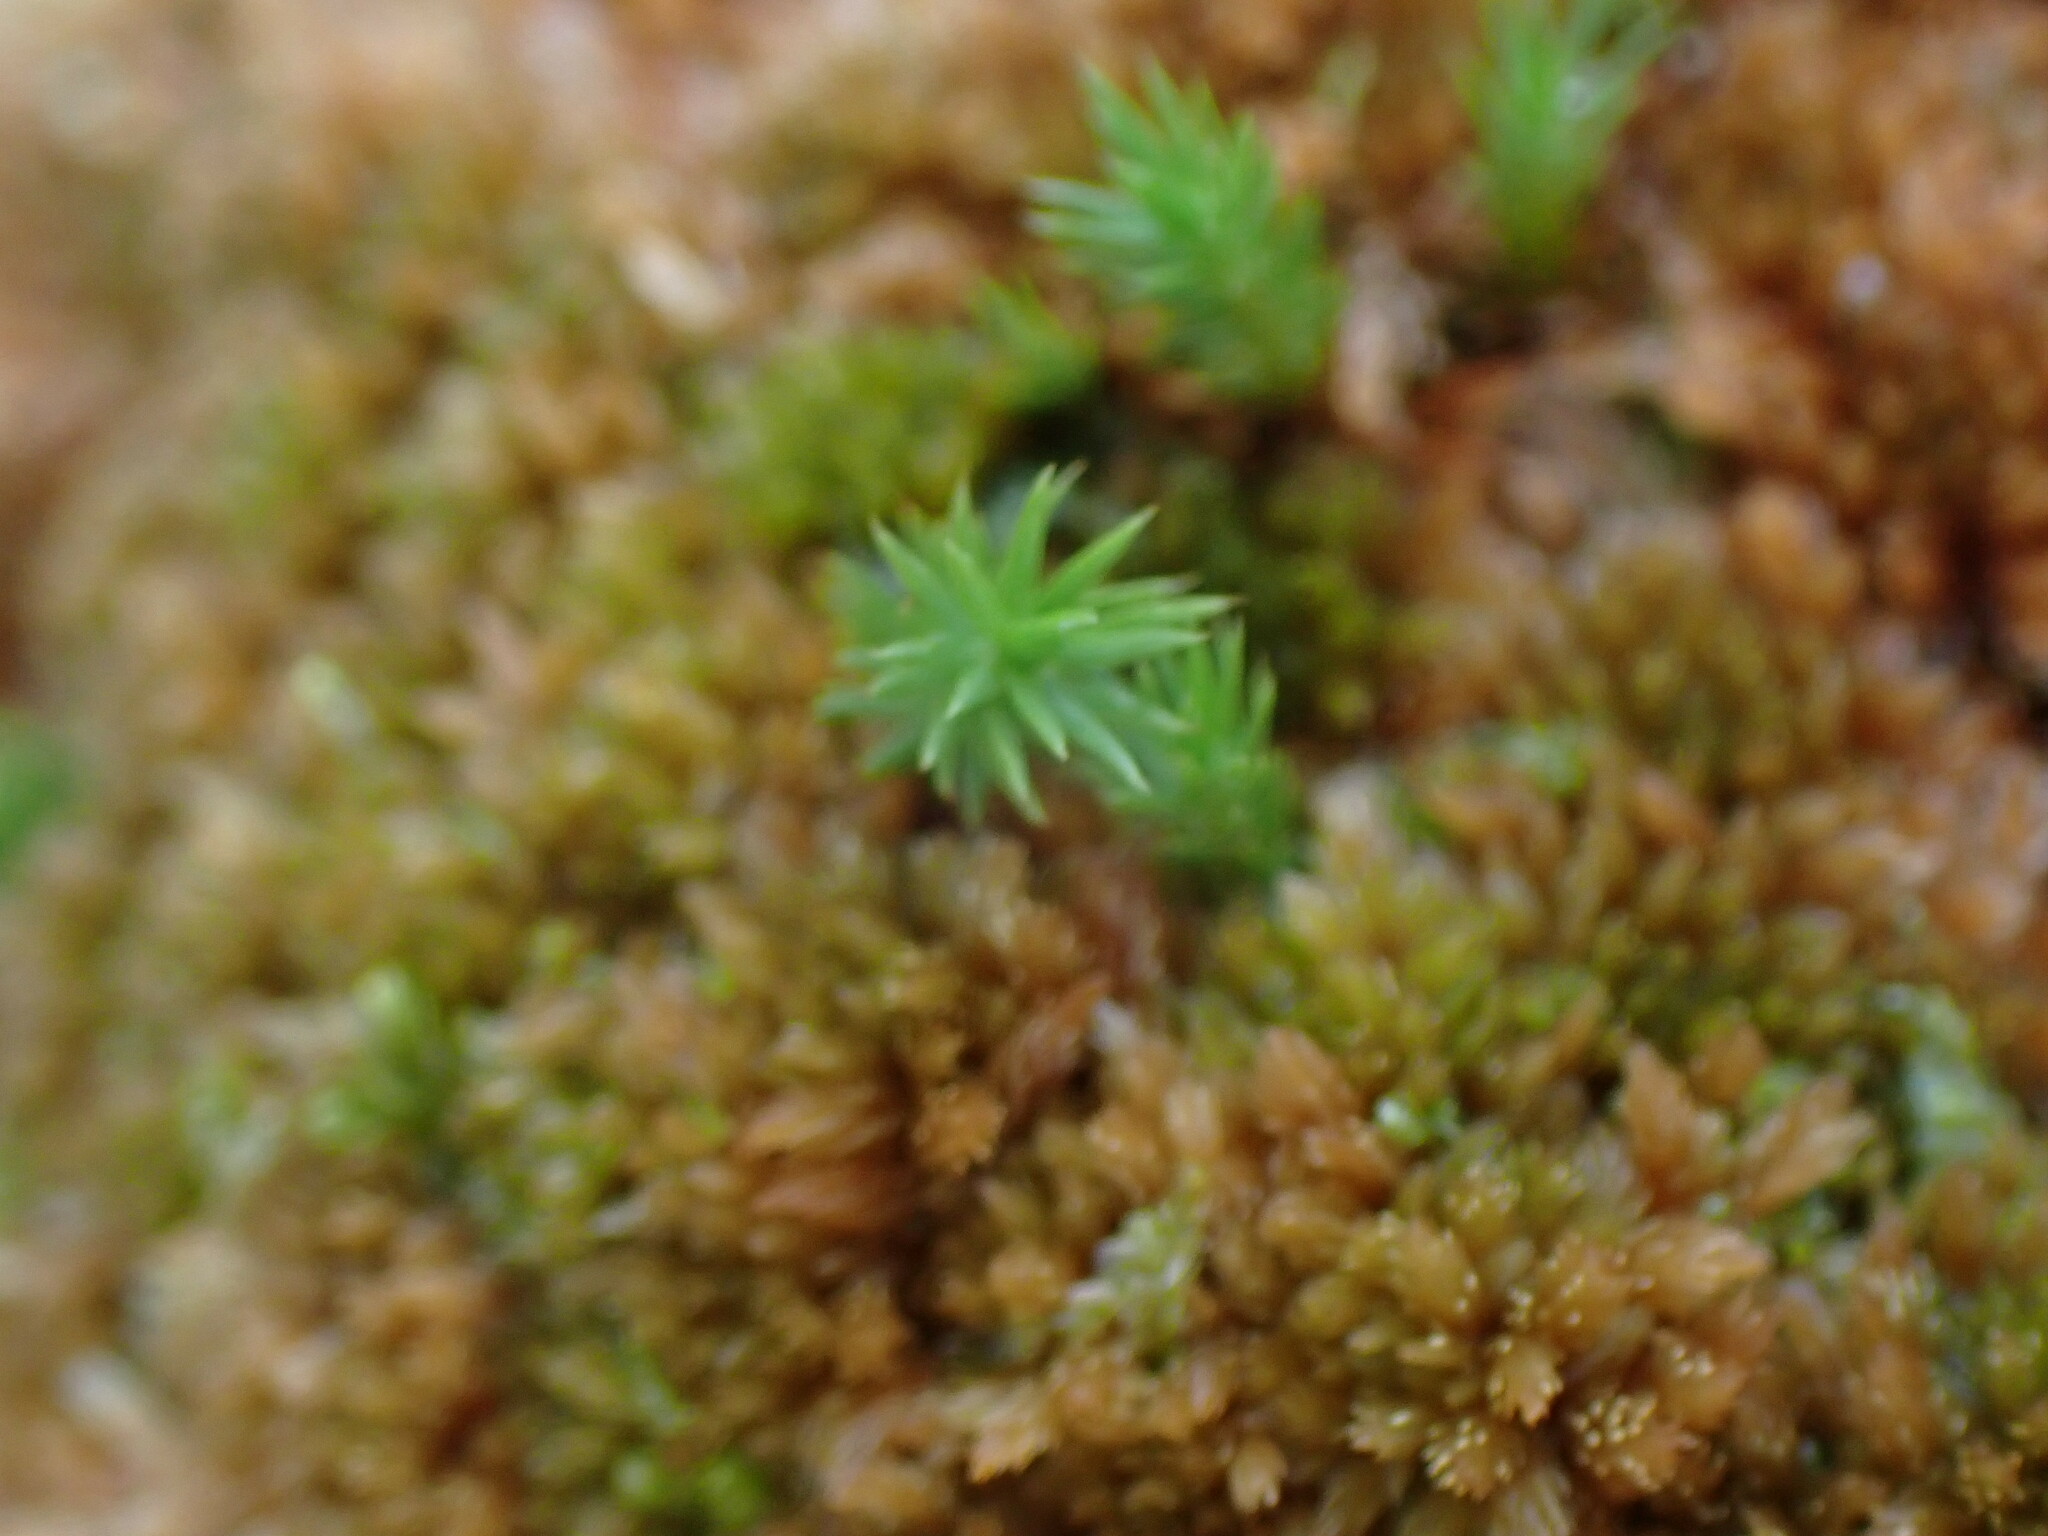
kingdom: Plantae
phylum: Bryophyta
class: Polytrichopsida
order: Polytrichales
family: Polytrichaceae
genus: Polytrichum
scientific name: Polytrichum strictum
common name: Bog haircap moss
